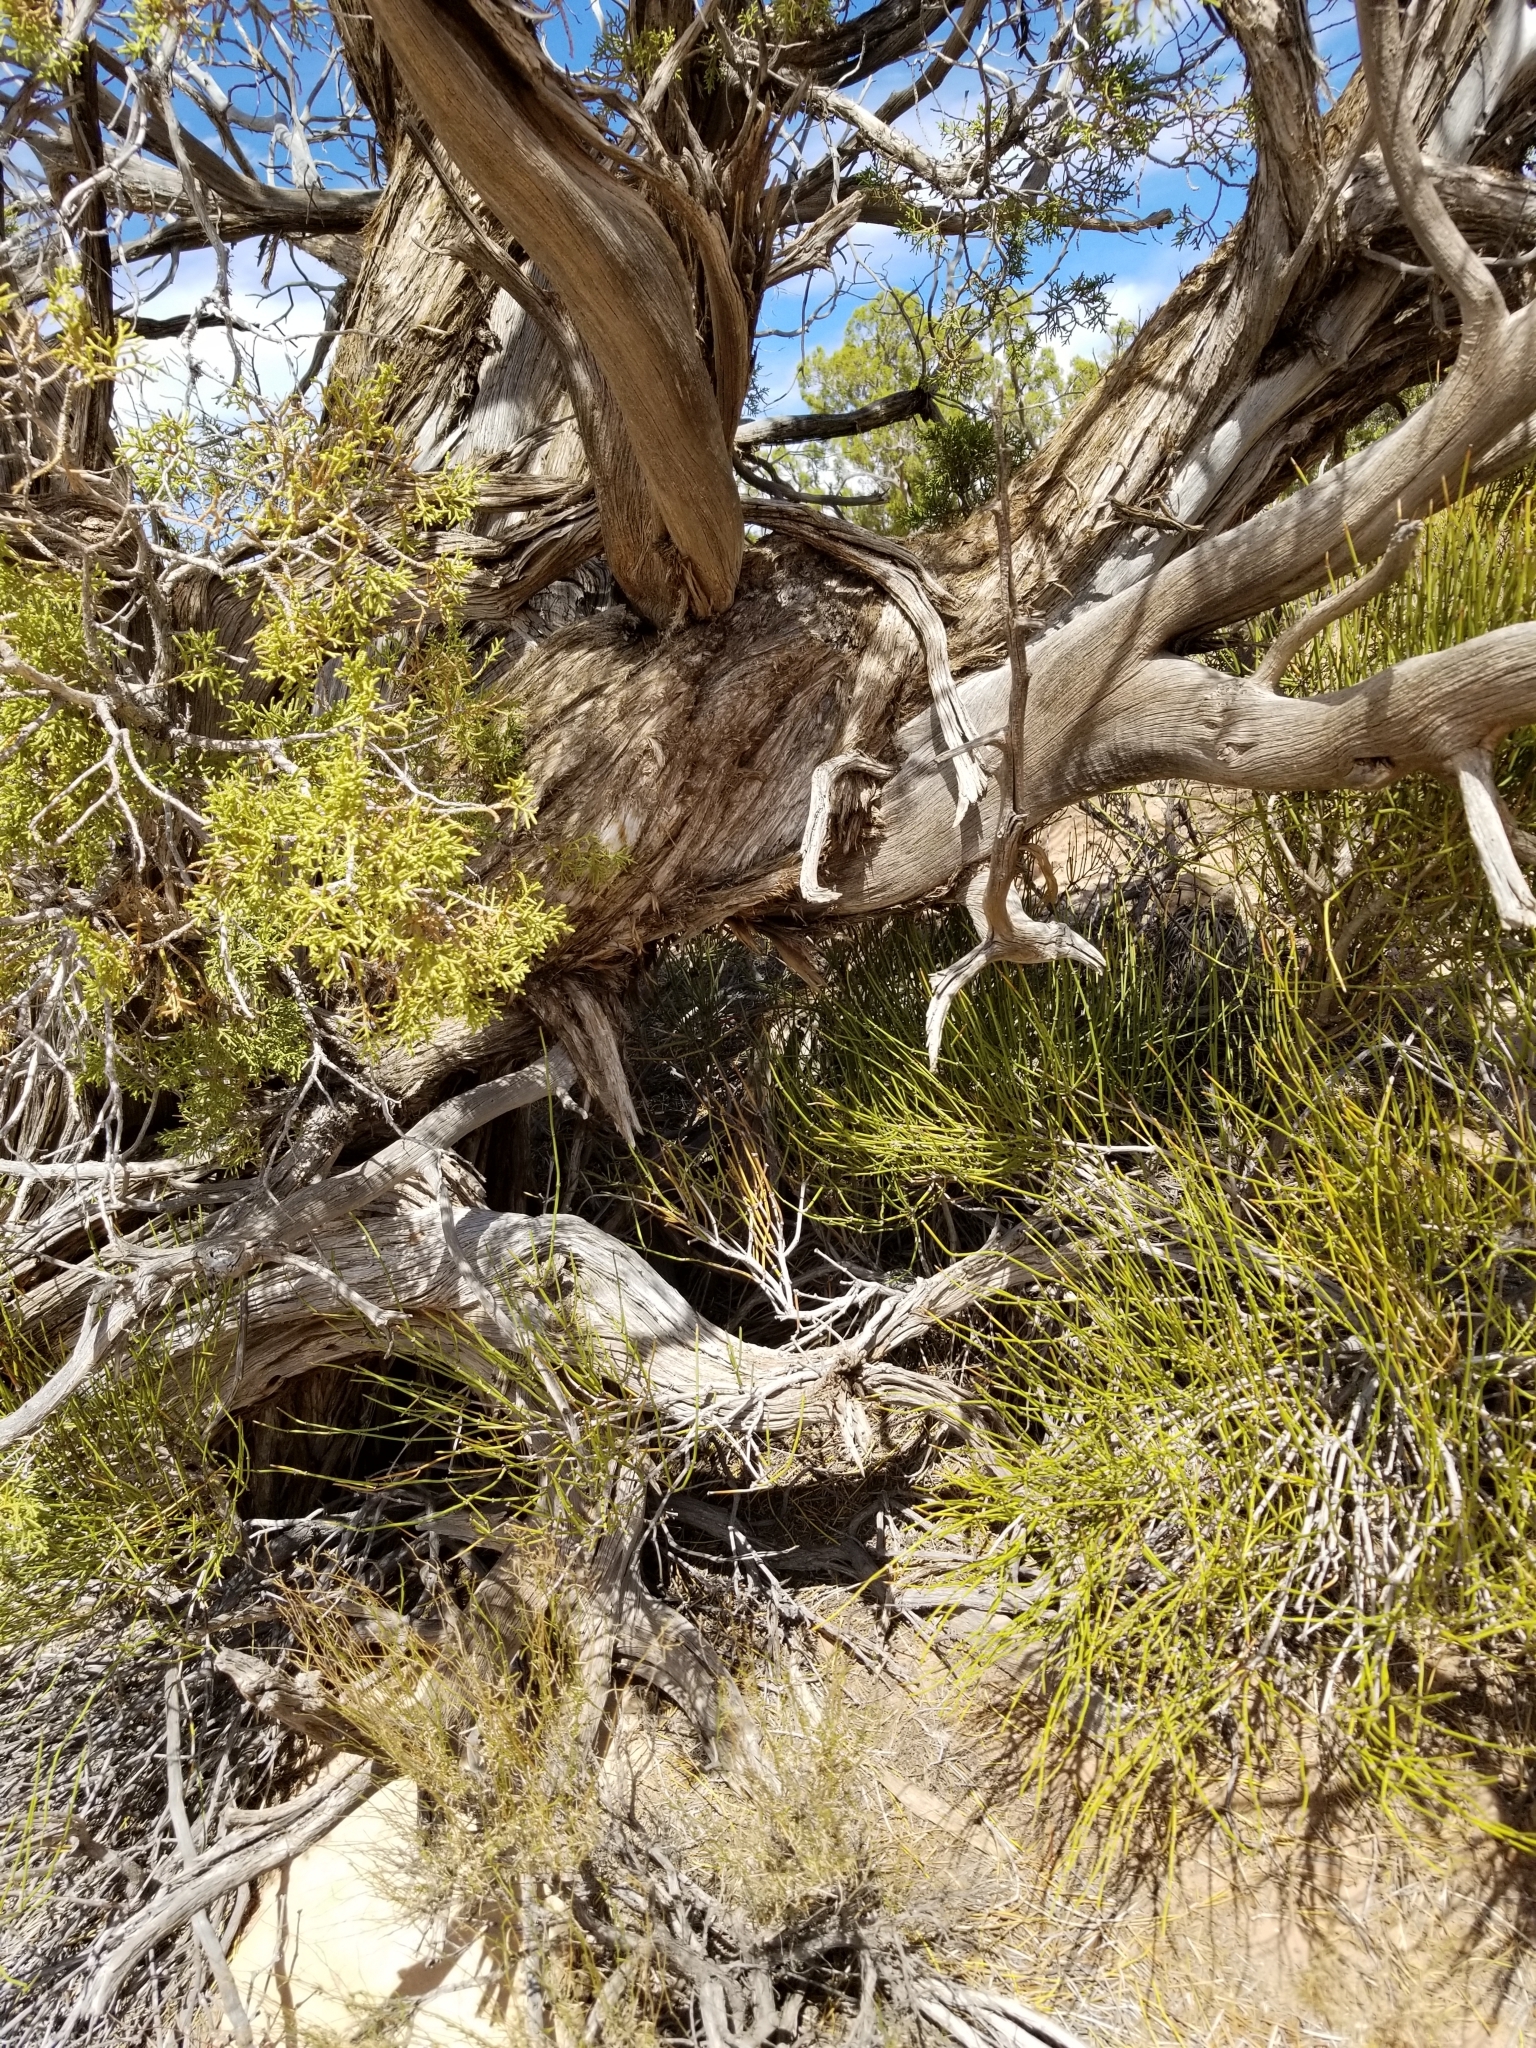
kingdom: Plantae
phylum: Tracheophyta
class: Pinopsida
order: Pinales
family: Cupressaceae
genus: Juniperus
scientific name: Juniperus osteosperma
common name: Utah juniper
